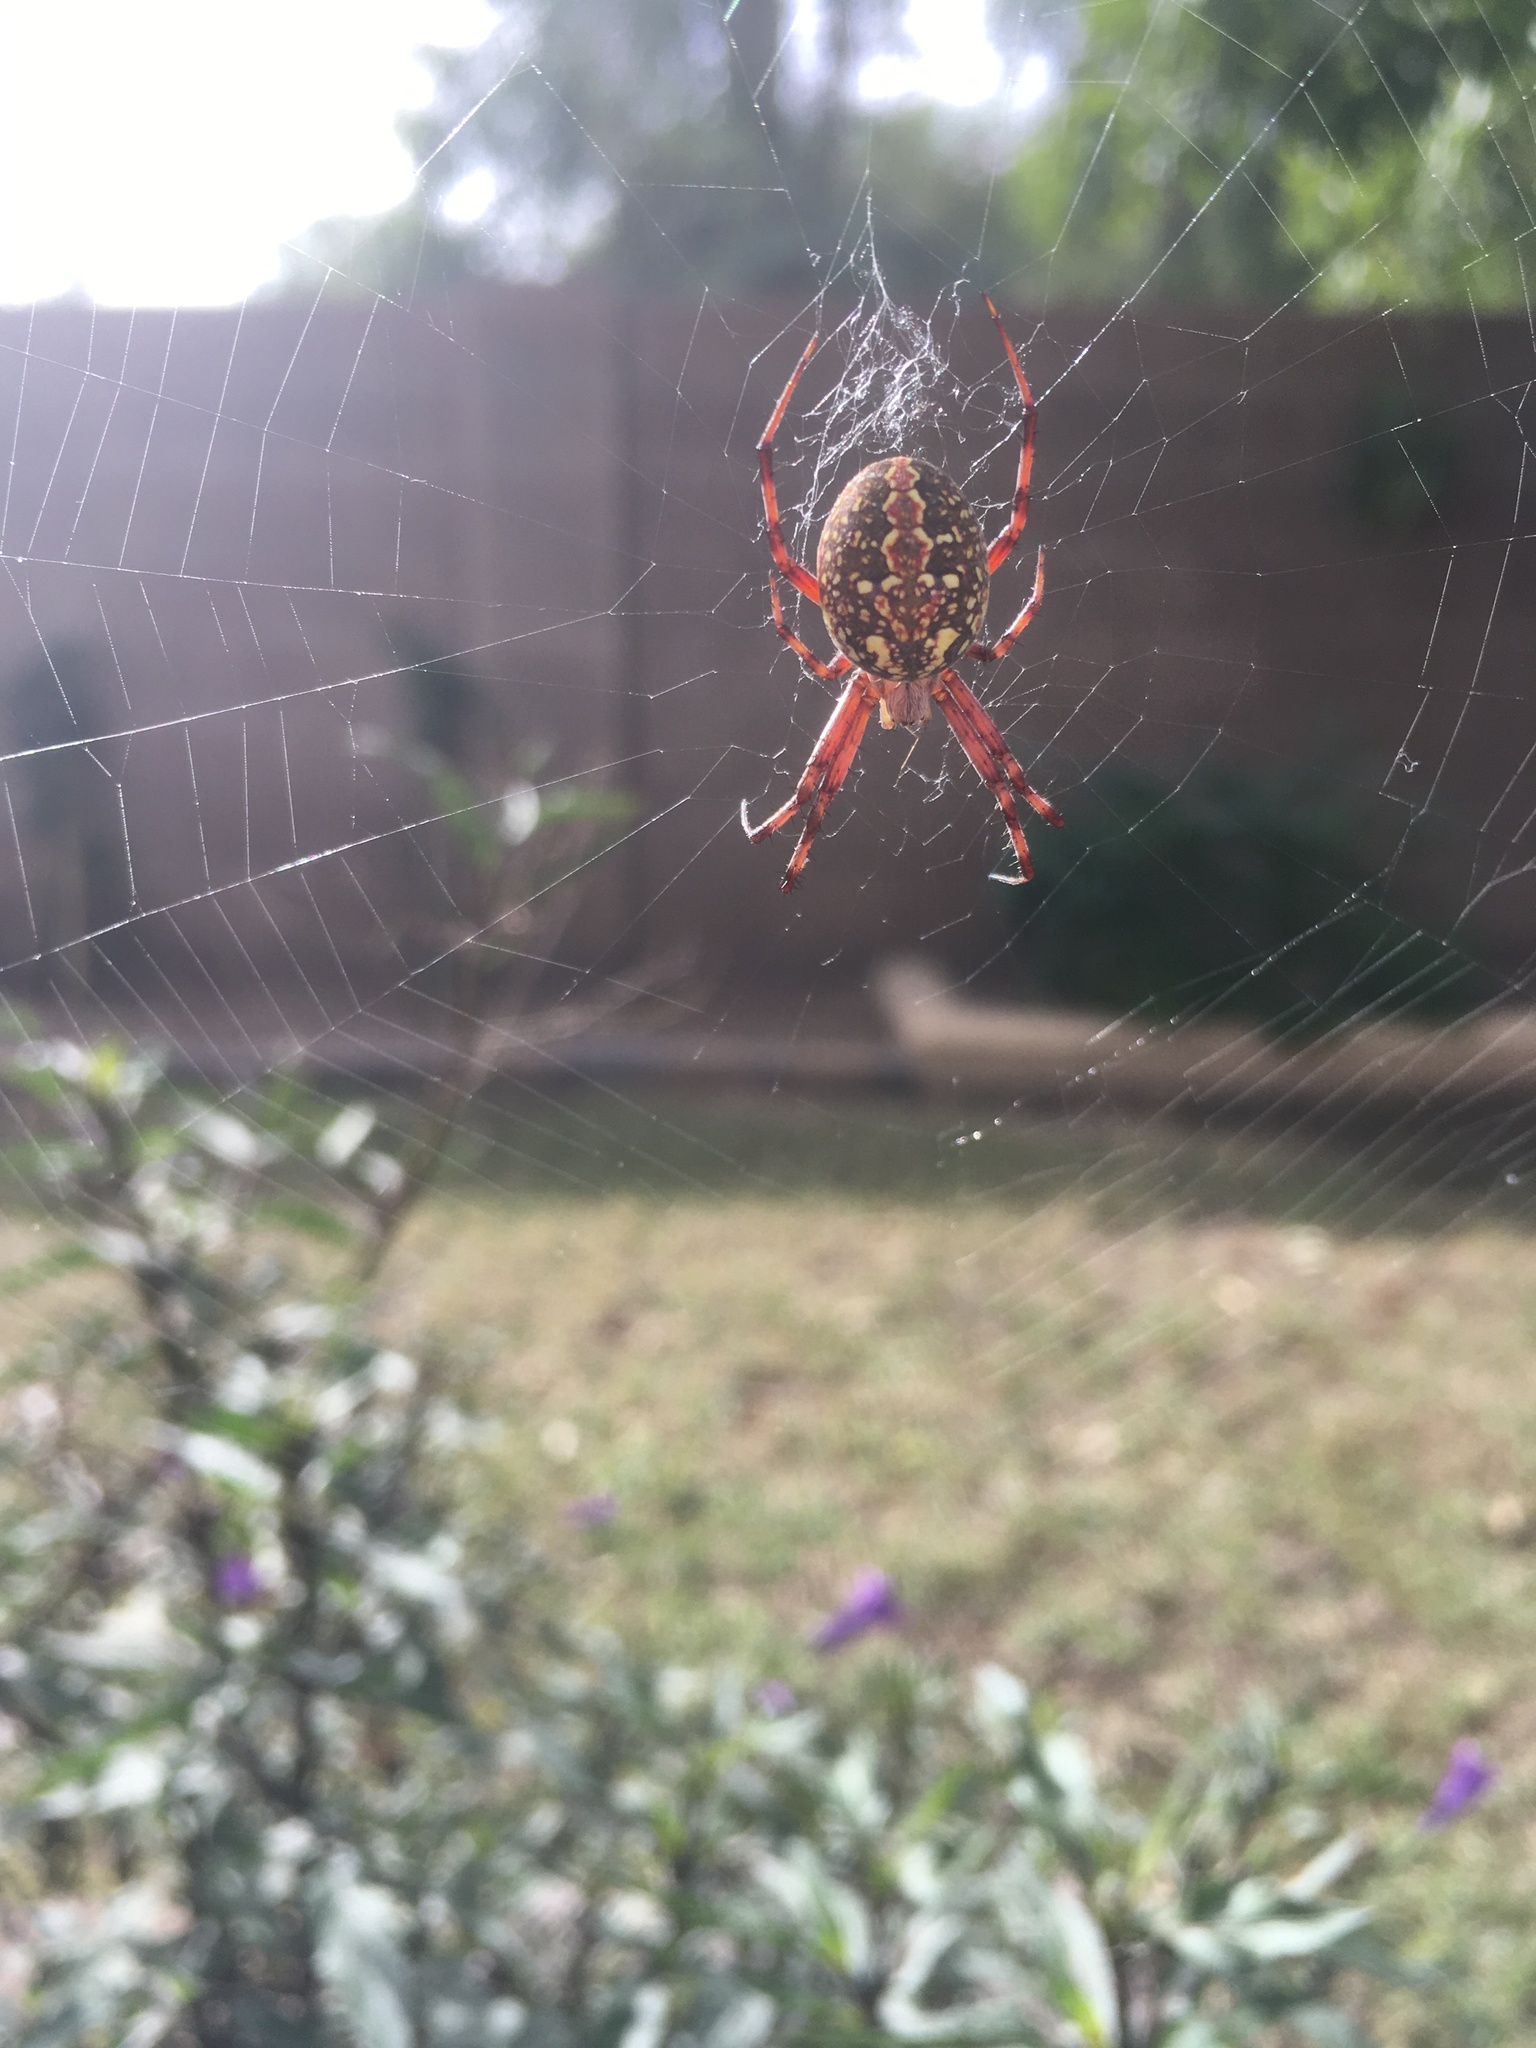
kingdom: Animalia
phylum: Arthropoda
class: Arachnida
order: Araneae
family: Araneidae
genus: Neoscona
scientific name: Neoscona oaxacensis
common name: Orb weavers
